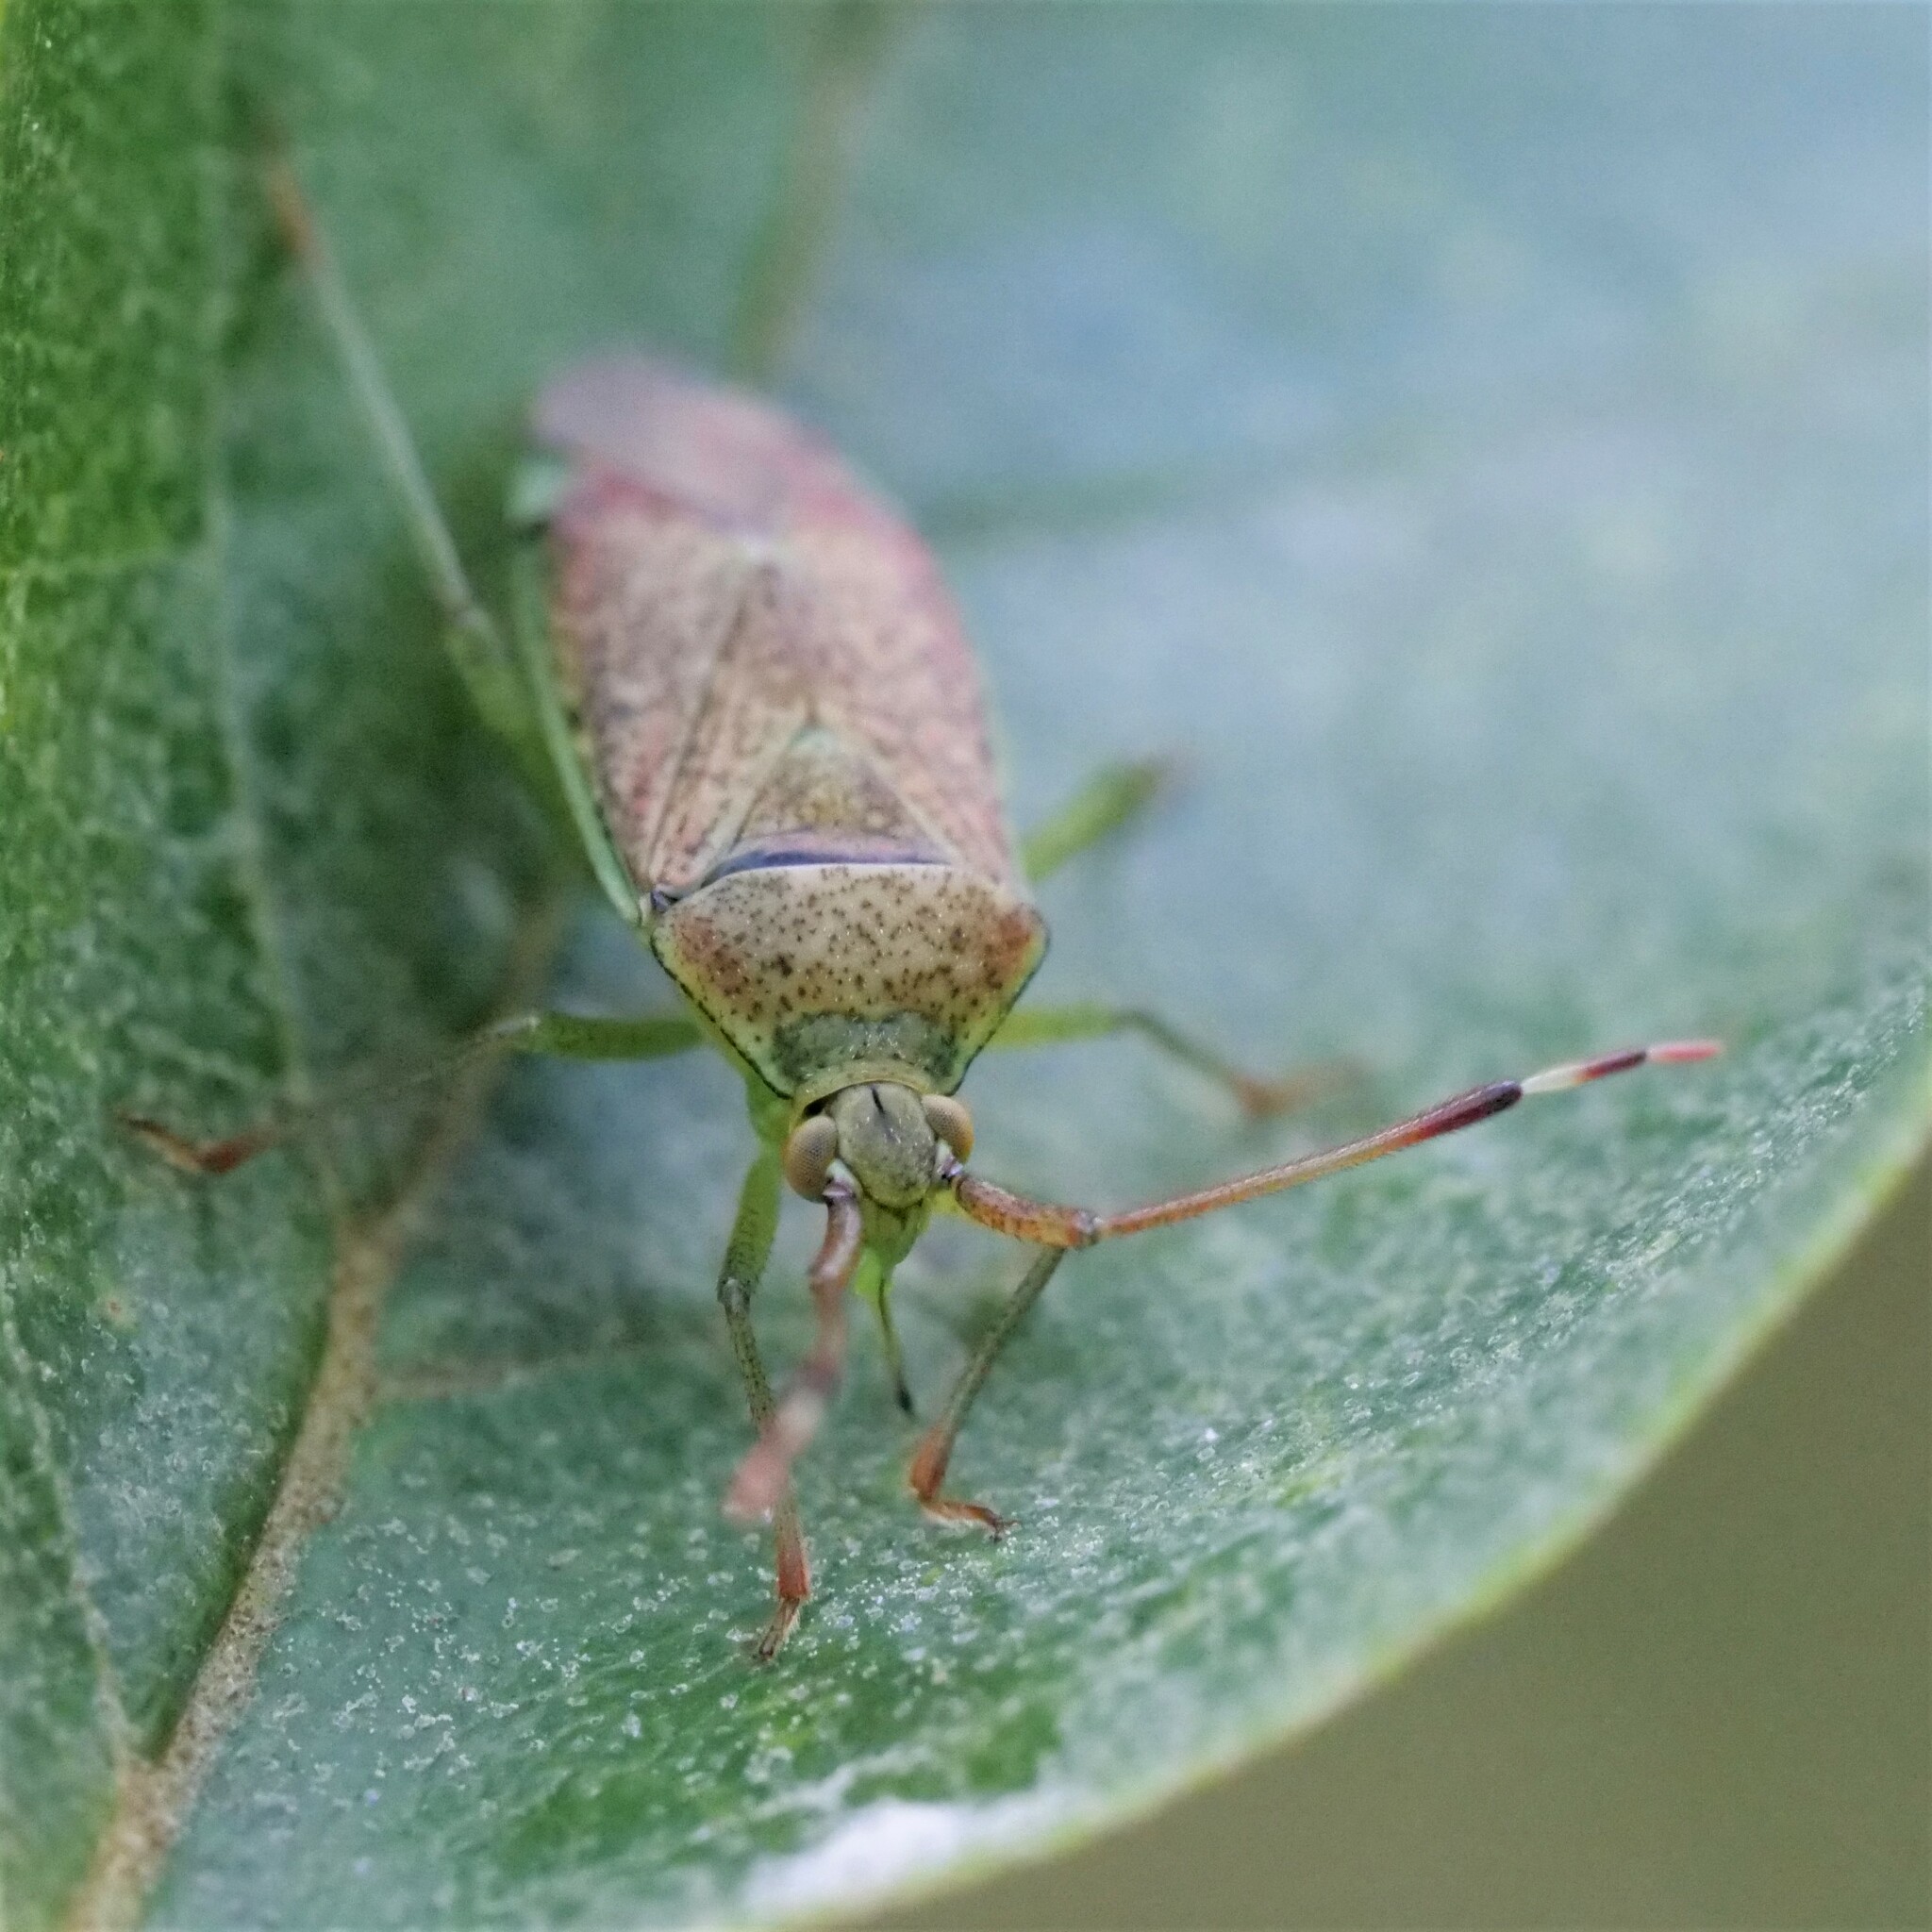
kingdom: Animalia
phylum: Arthropoda
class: Insecta
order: Hemiptera
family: Miridae
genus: Pantilius
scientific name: Pantilius tunicatus
